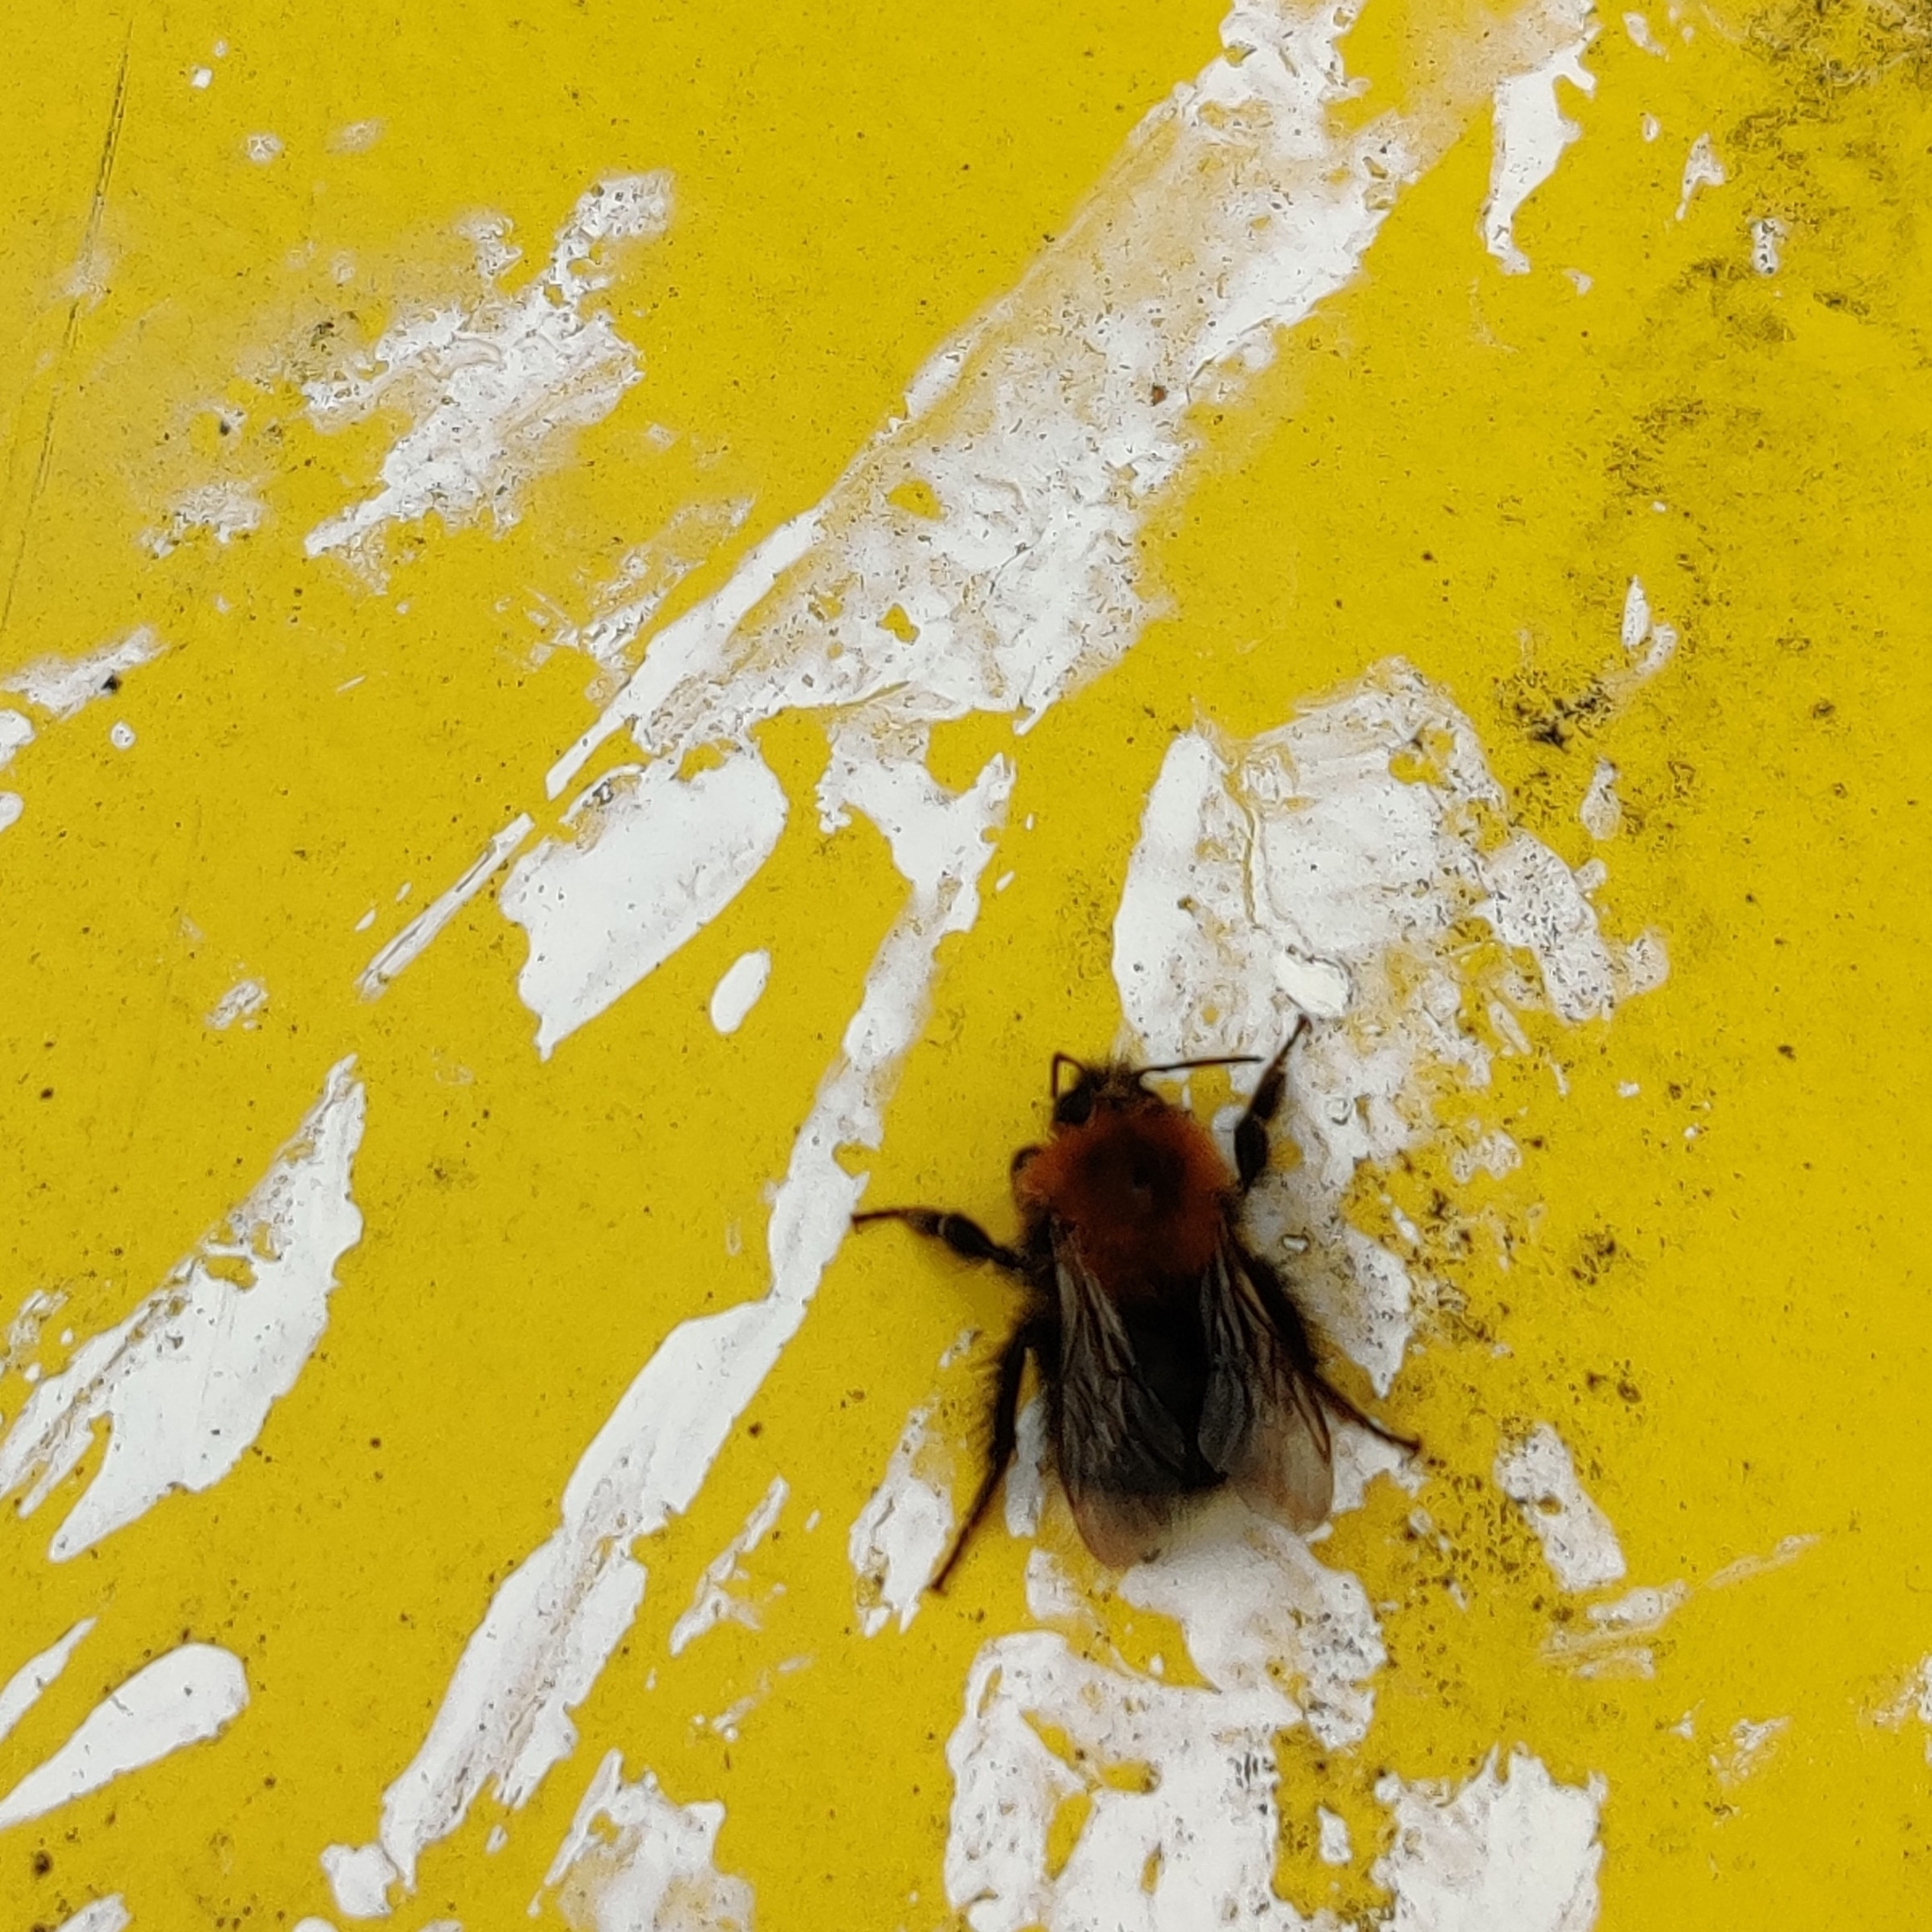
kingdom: Animalia
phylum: Arthropoda
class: Insecta
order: Hymenoptera
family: Apidae
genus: Bombus
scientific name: Bombus hypnorum
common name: New garden bumblebee
